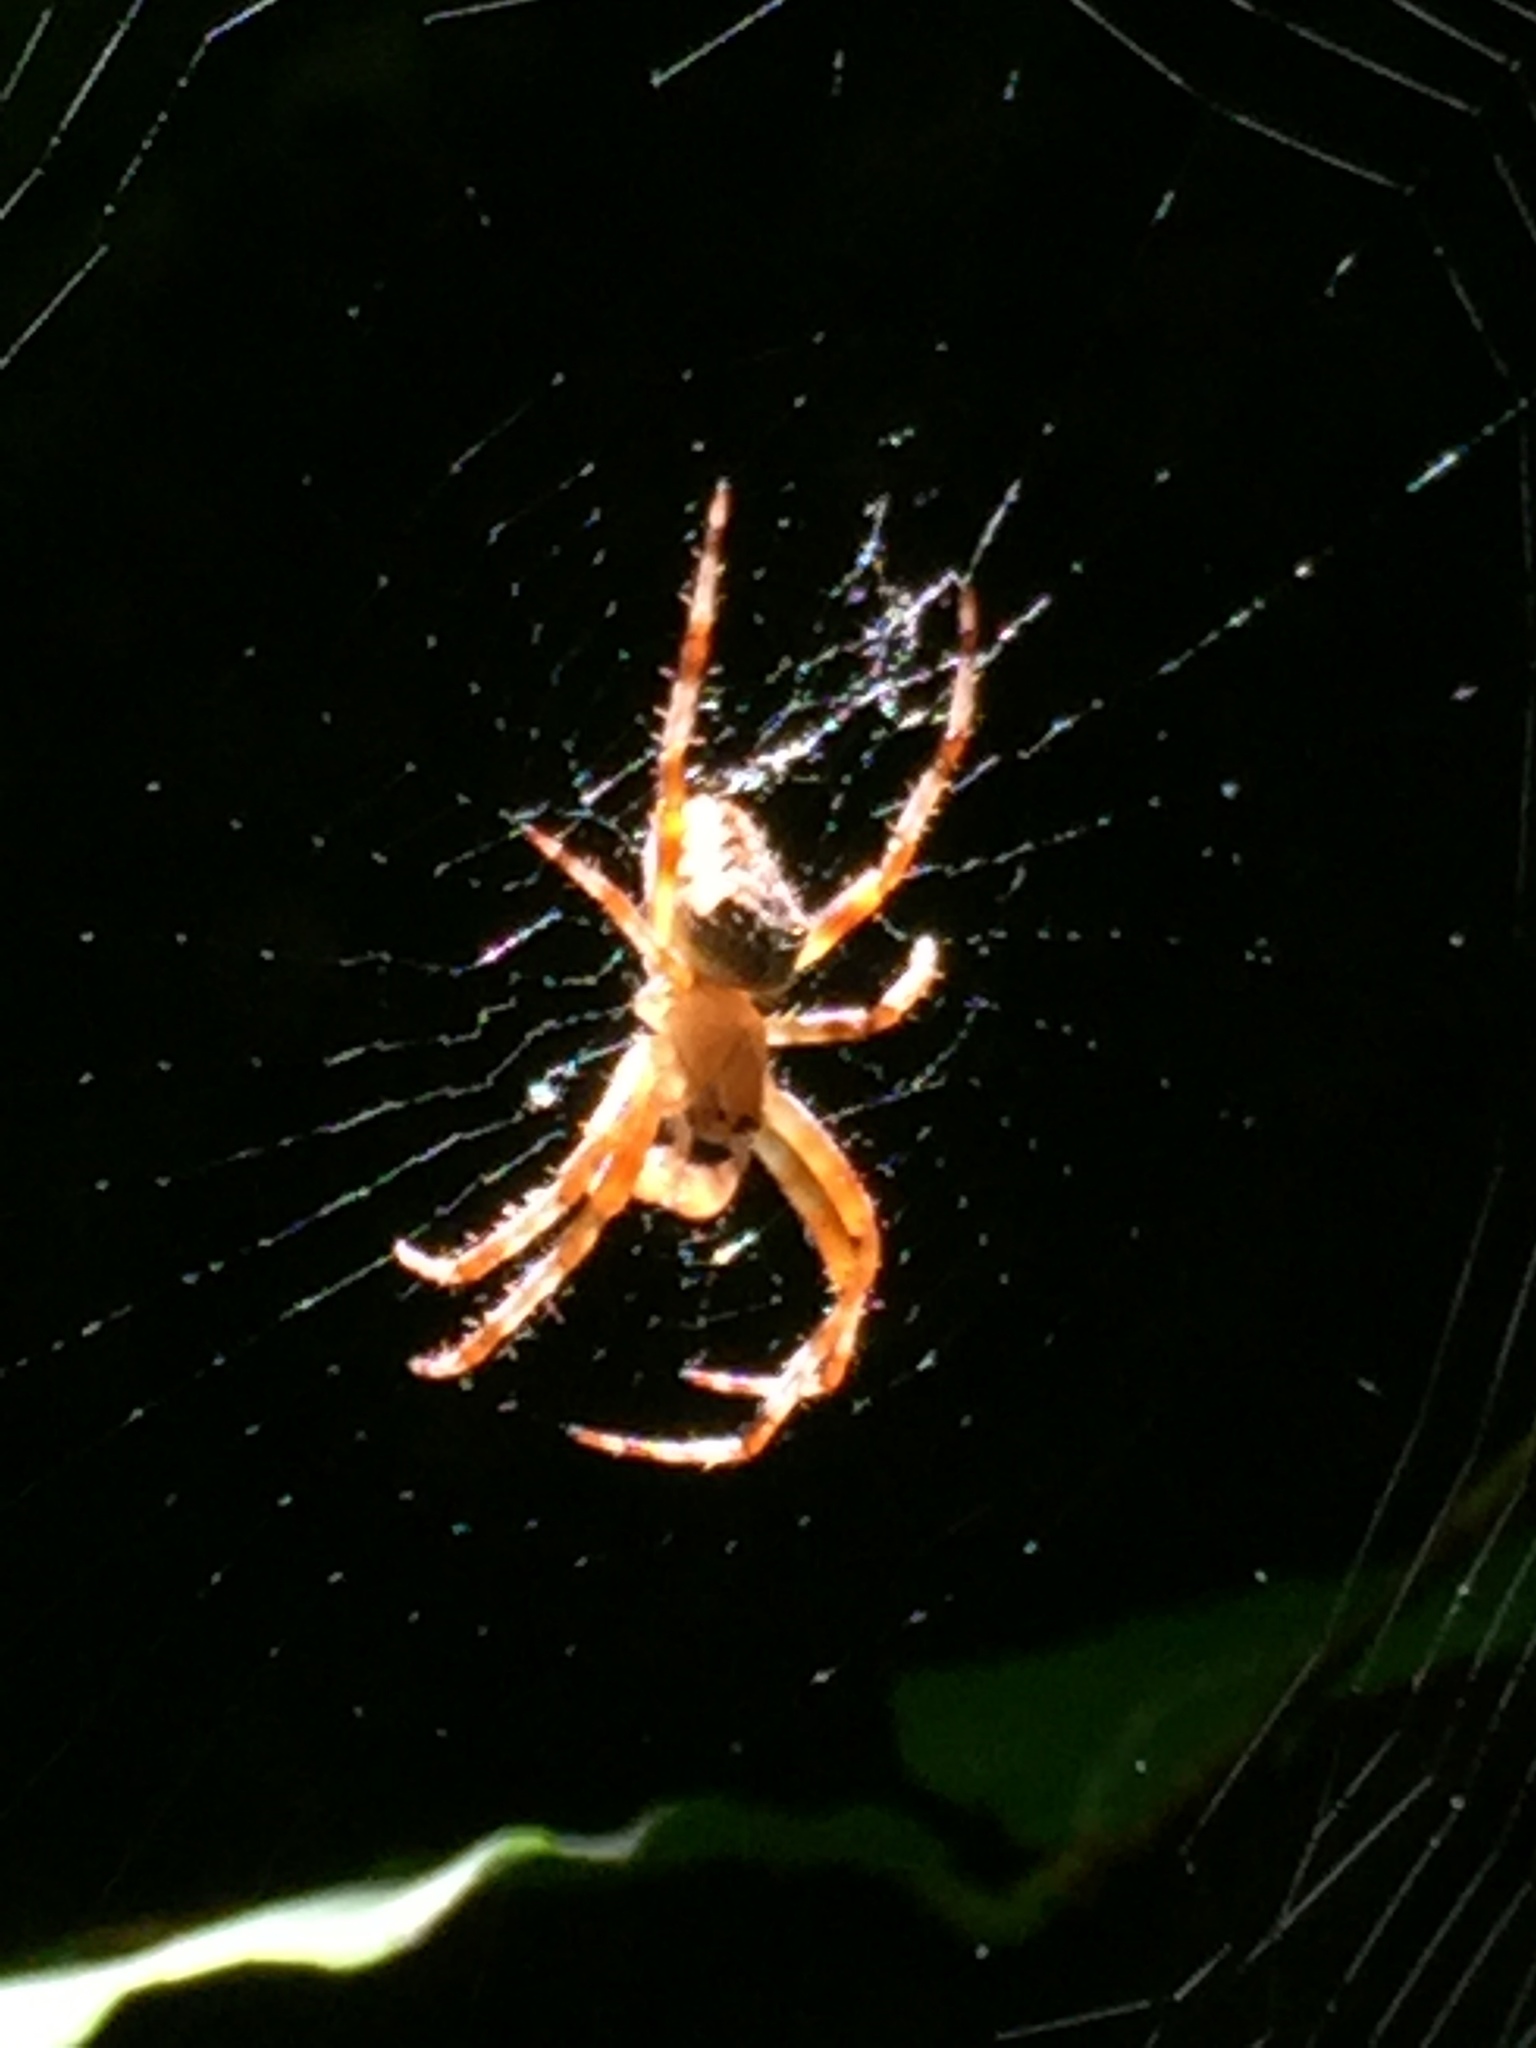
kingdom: Animalia
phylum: Arthropoda
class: Arachnida
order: Araneae
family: Araneidae
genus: Araneus
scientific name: Araneus diadematus
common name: Cross orbweaver
